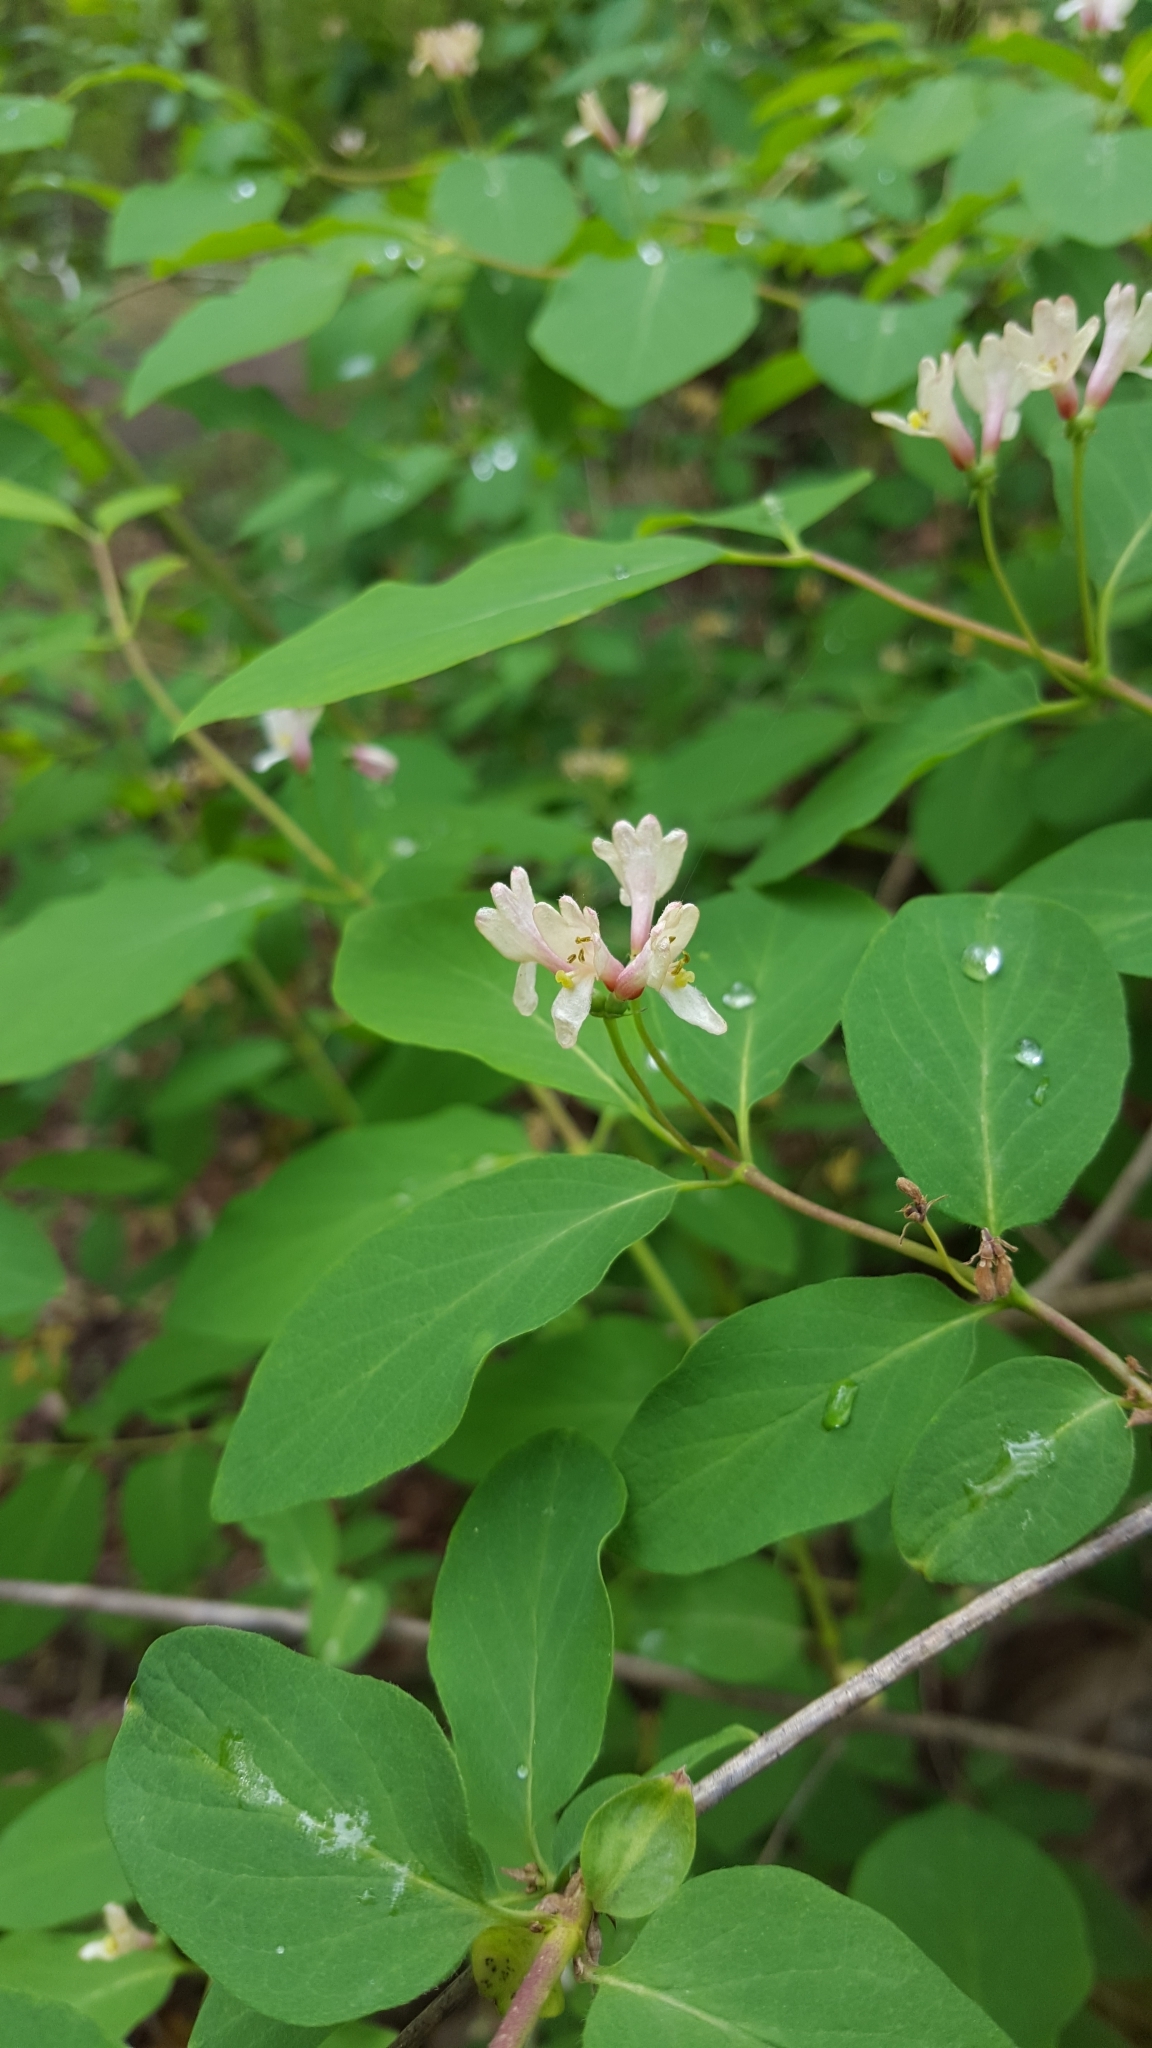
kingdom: Plantae
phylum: Tracheophyta
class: Magnoliopsida
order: Dipsacales
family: Caprifoliaceae
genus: Lonicera
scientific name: Lonicera xylosteum
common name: Fly honeysuckle
